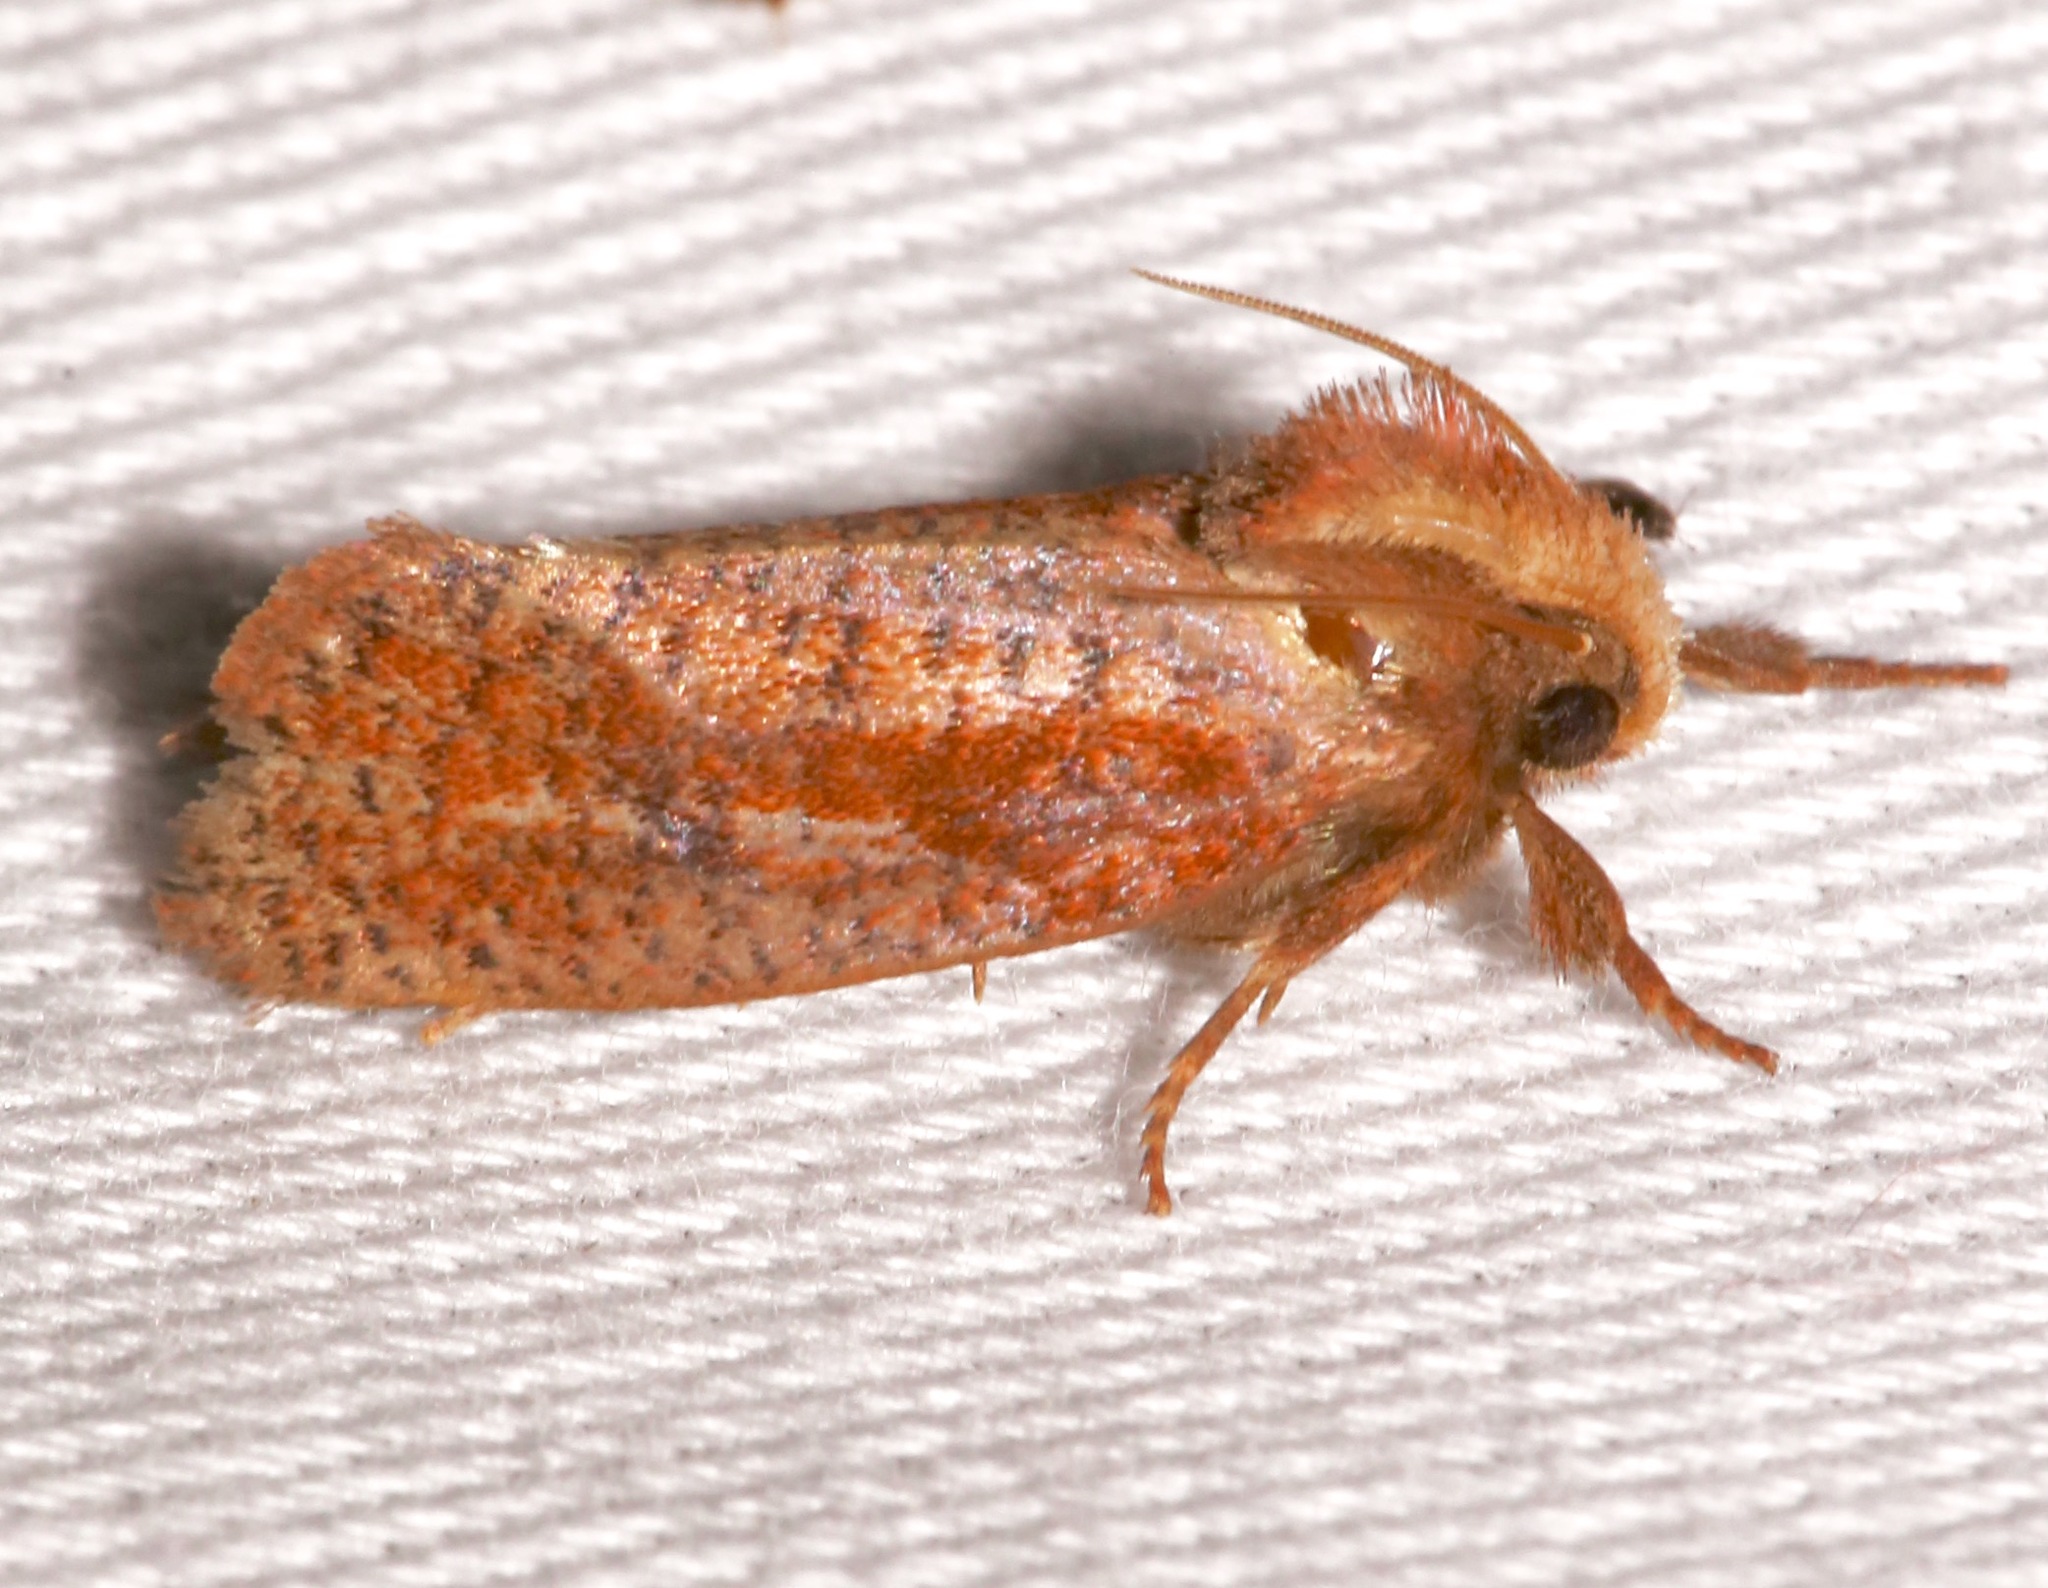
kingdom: Animalia
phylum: Arthropoda
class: Insecta
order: Lepidoptera
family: Tineidae
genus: Acrolophus
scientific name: Acrolophus plumifrontella
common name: Eastern grass tubeworm moth
